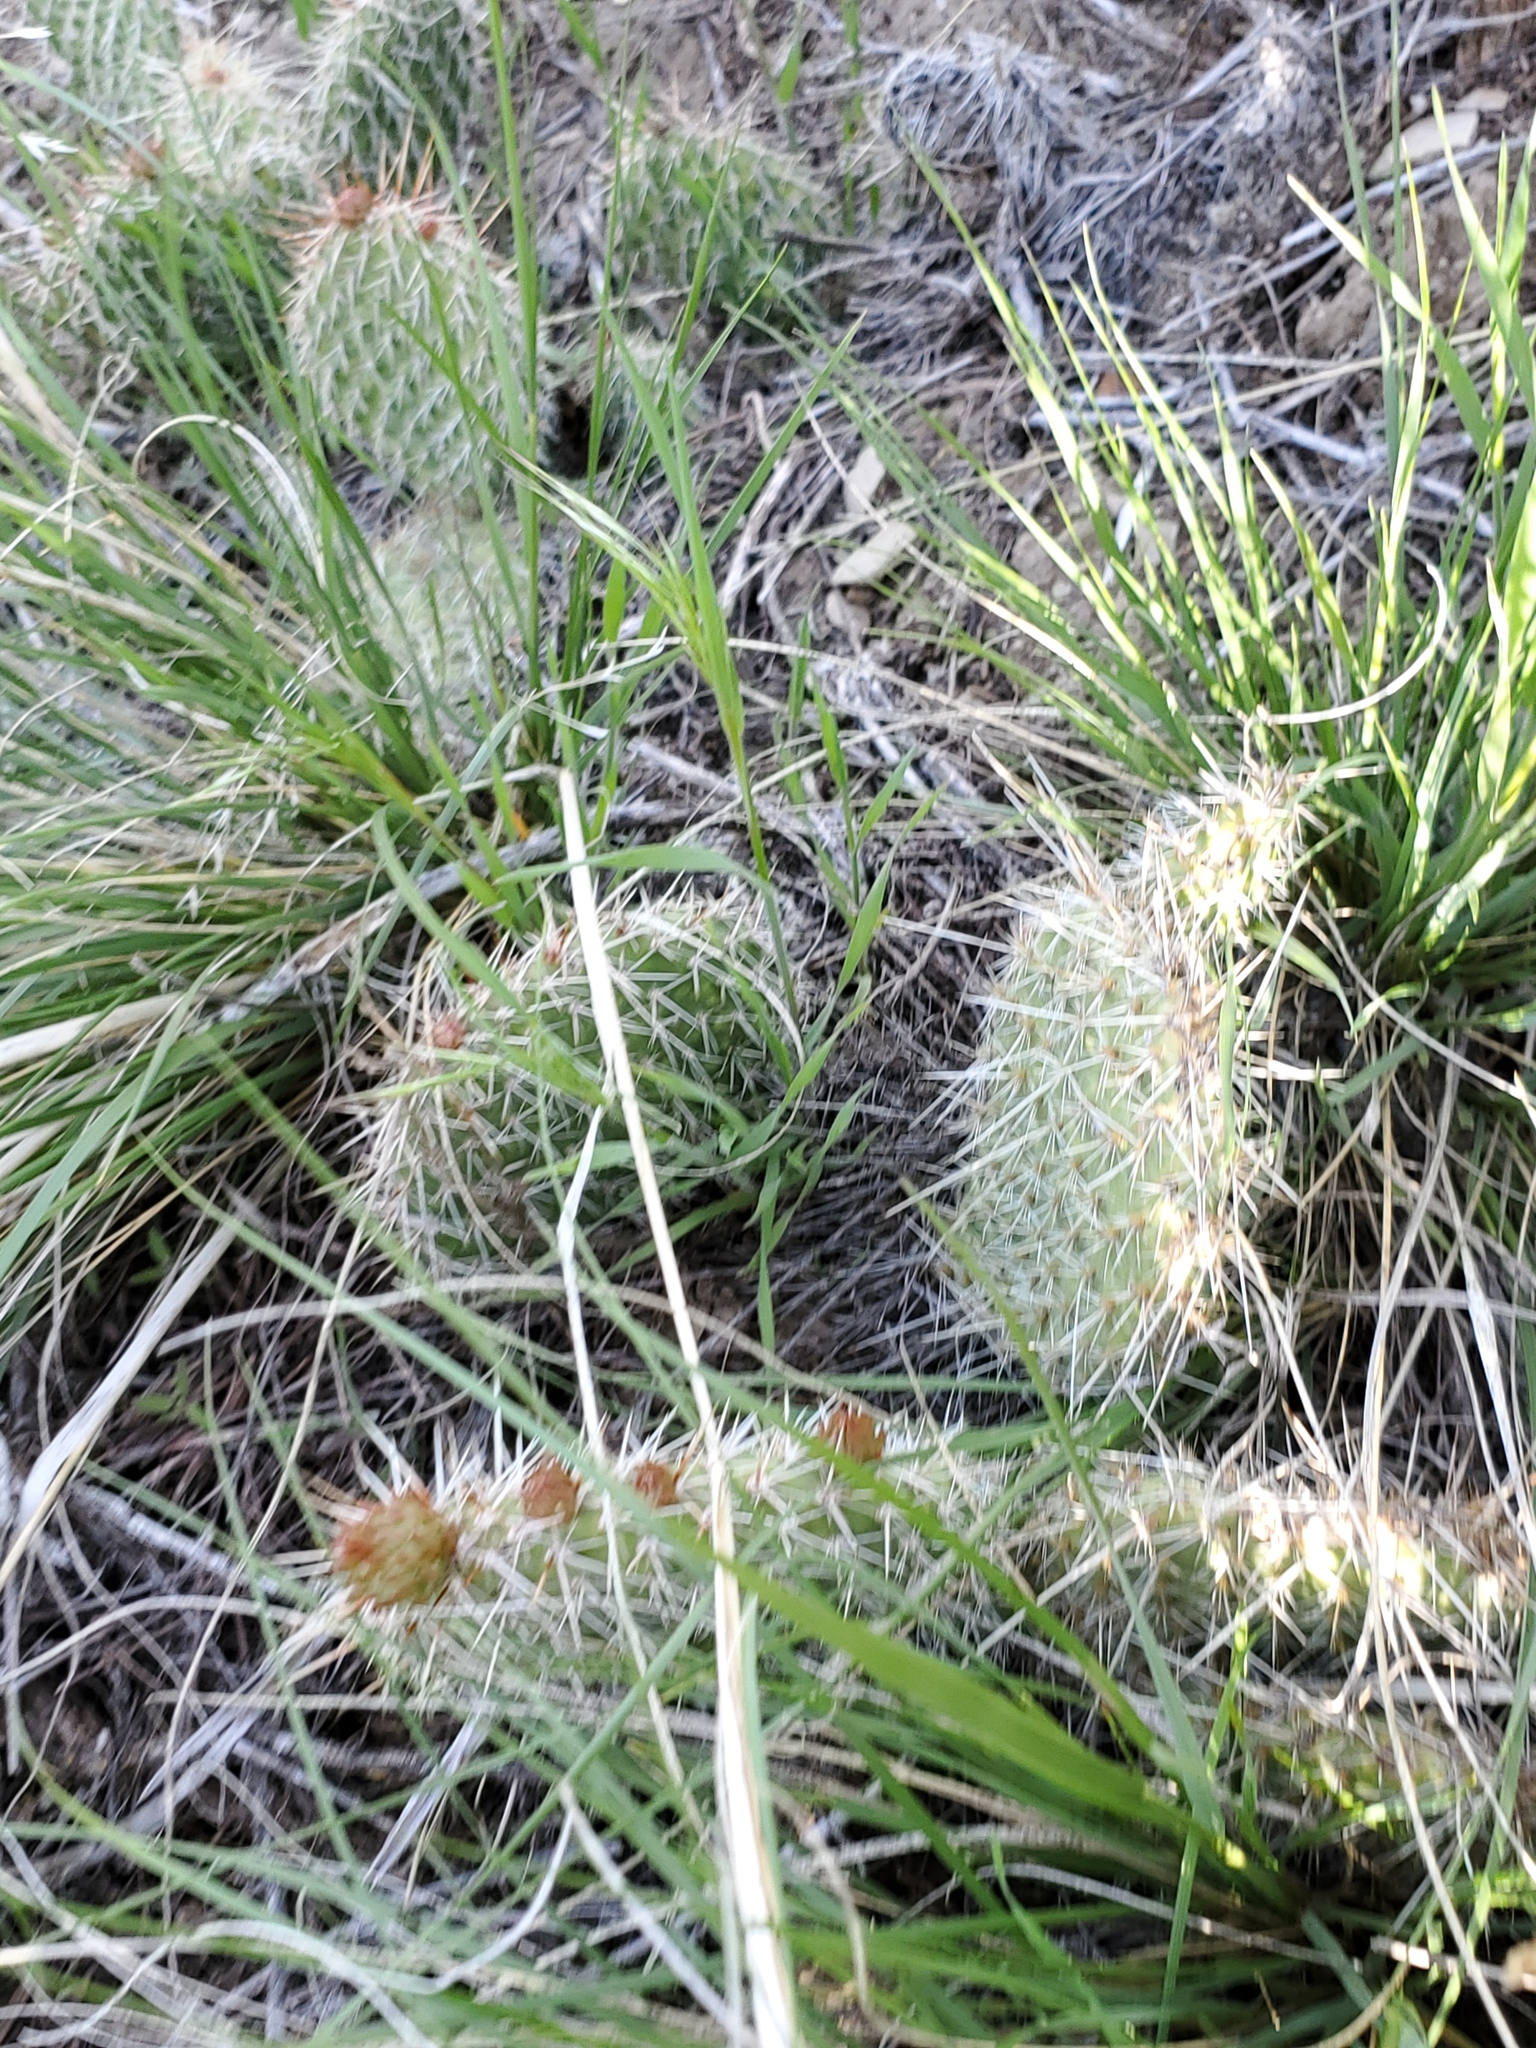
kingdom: Plantae
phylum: Tracheophyta
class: Magnoliopsida
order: Caryophyllales
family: Cactaceae
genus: Opuntia
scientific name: Opuntia polyacantha
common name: Plains prickly-pear
